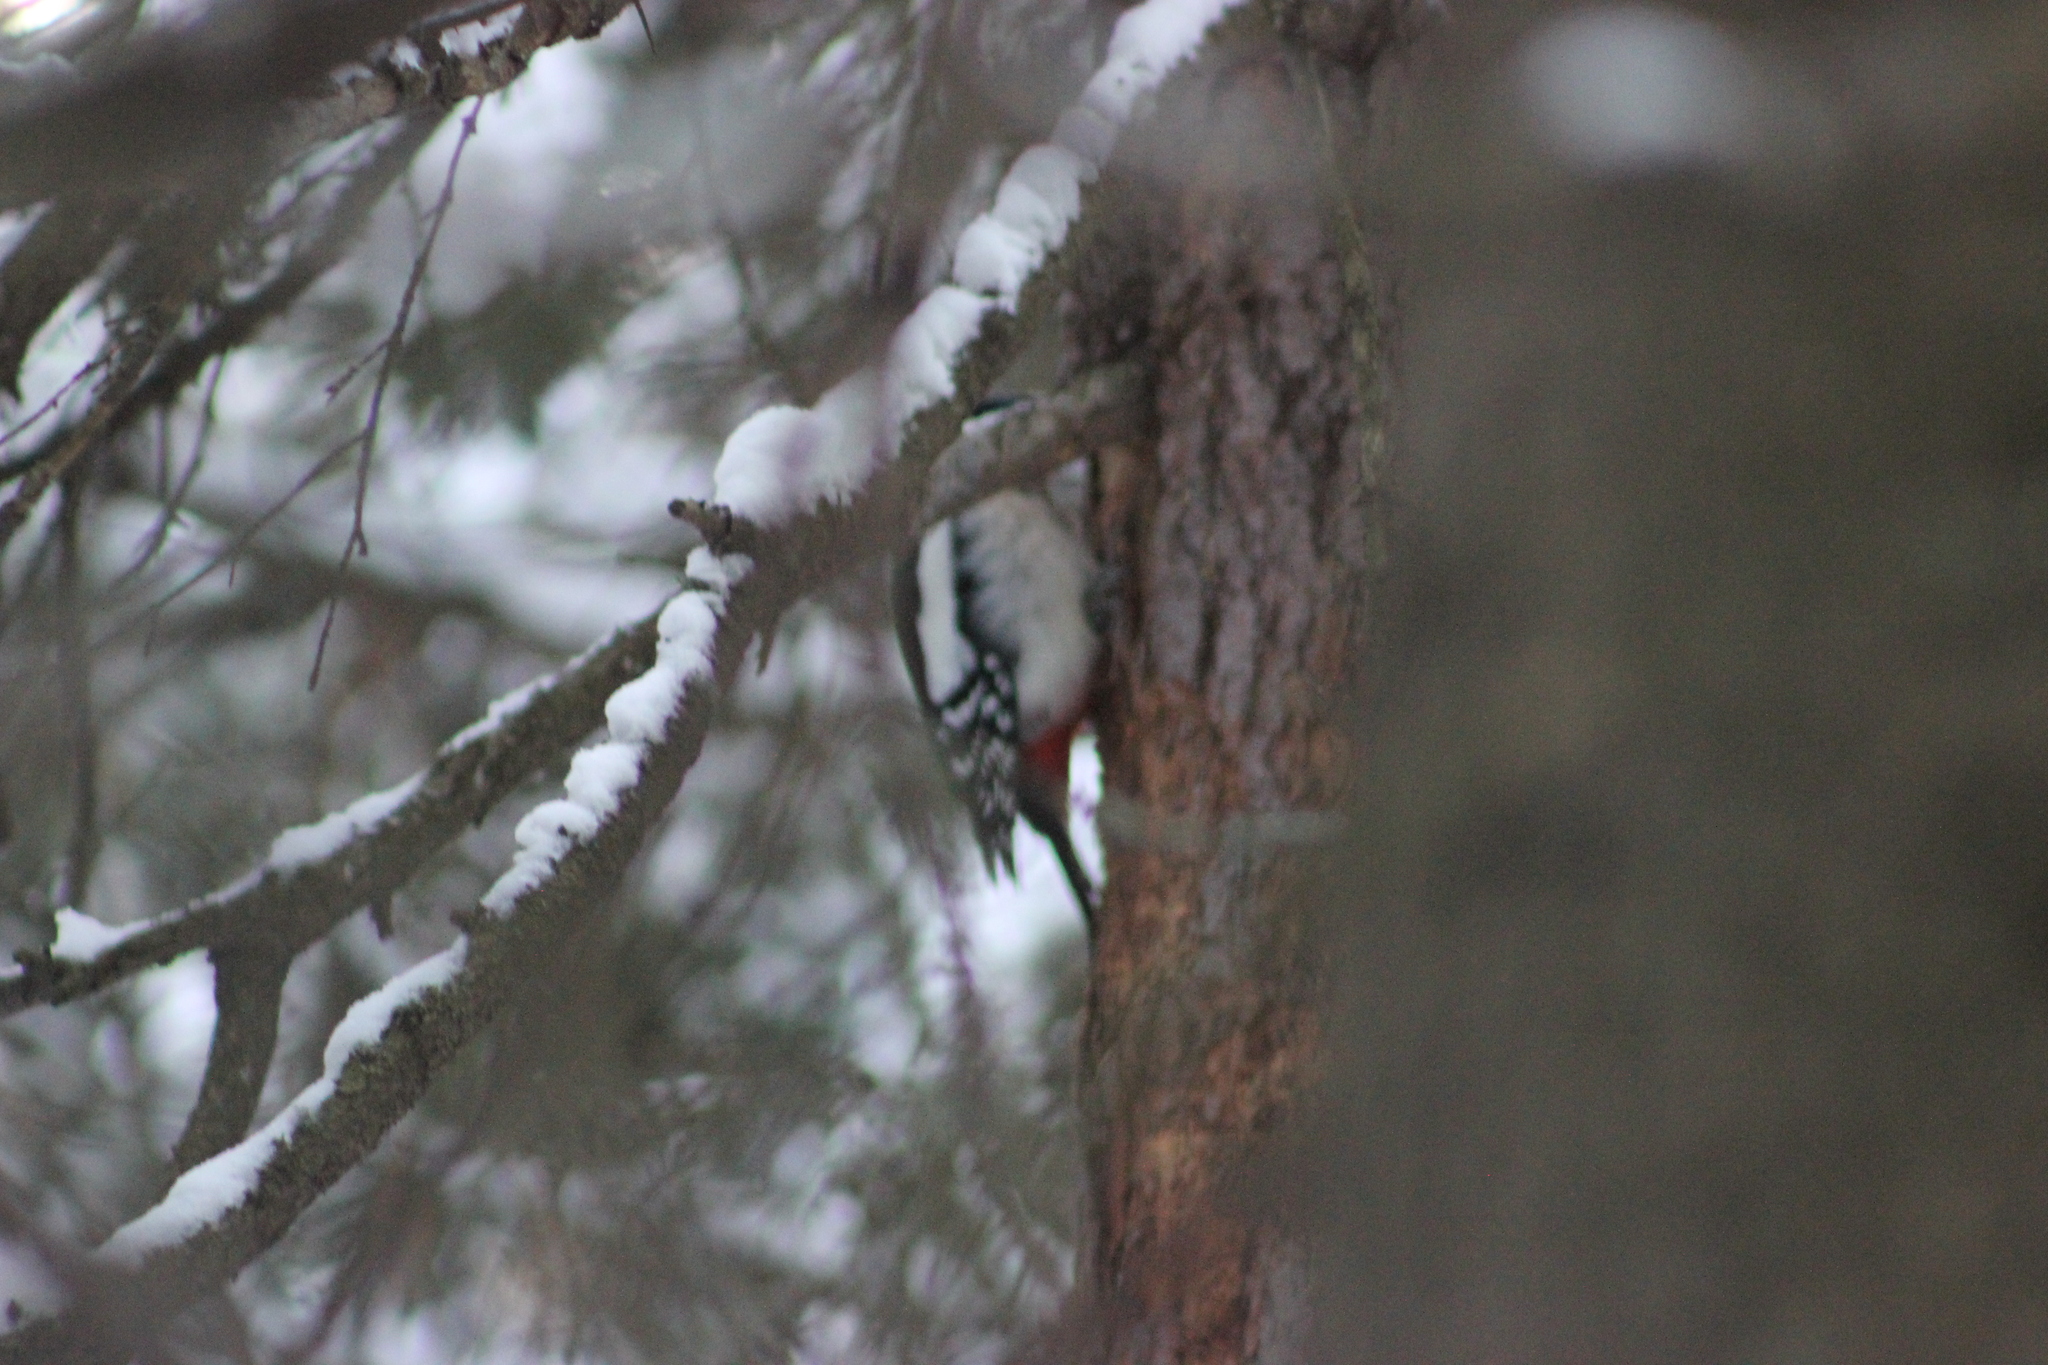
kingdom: Animalia
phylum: Chordata
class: Aves
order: Piciformes
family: Picidae
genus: Dendrocopos
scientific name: Dendrocopos major
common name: Great spotted woodpecker
